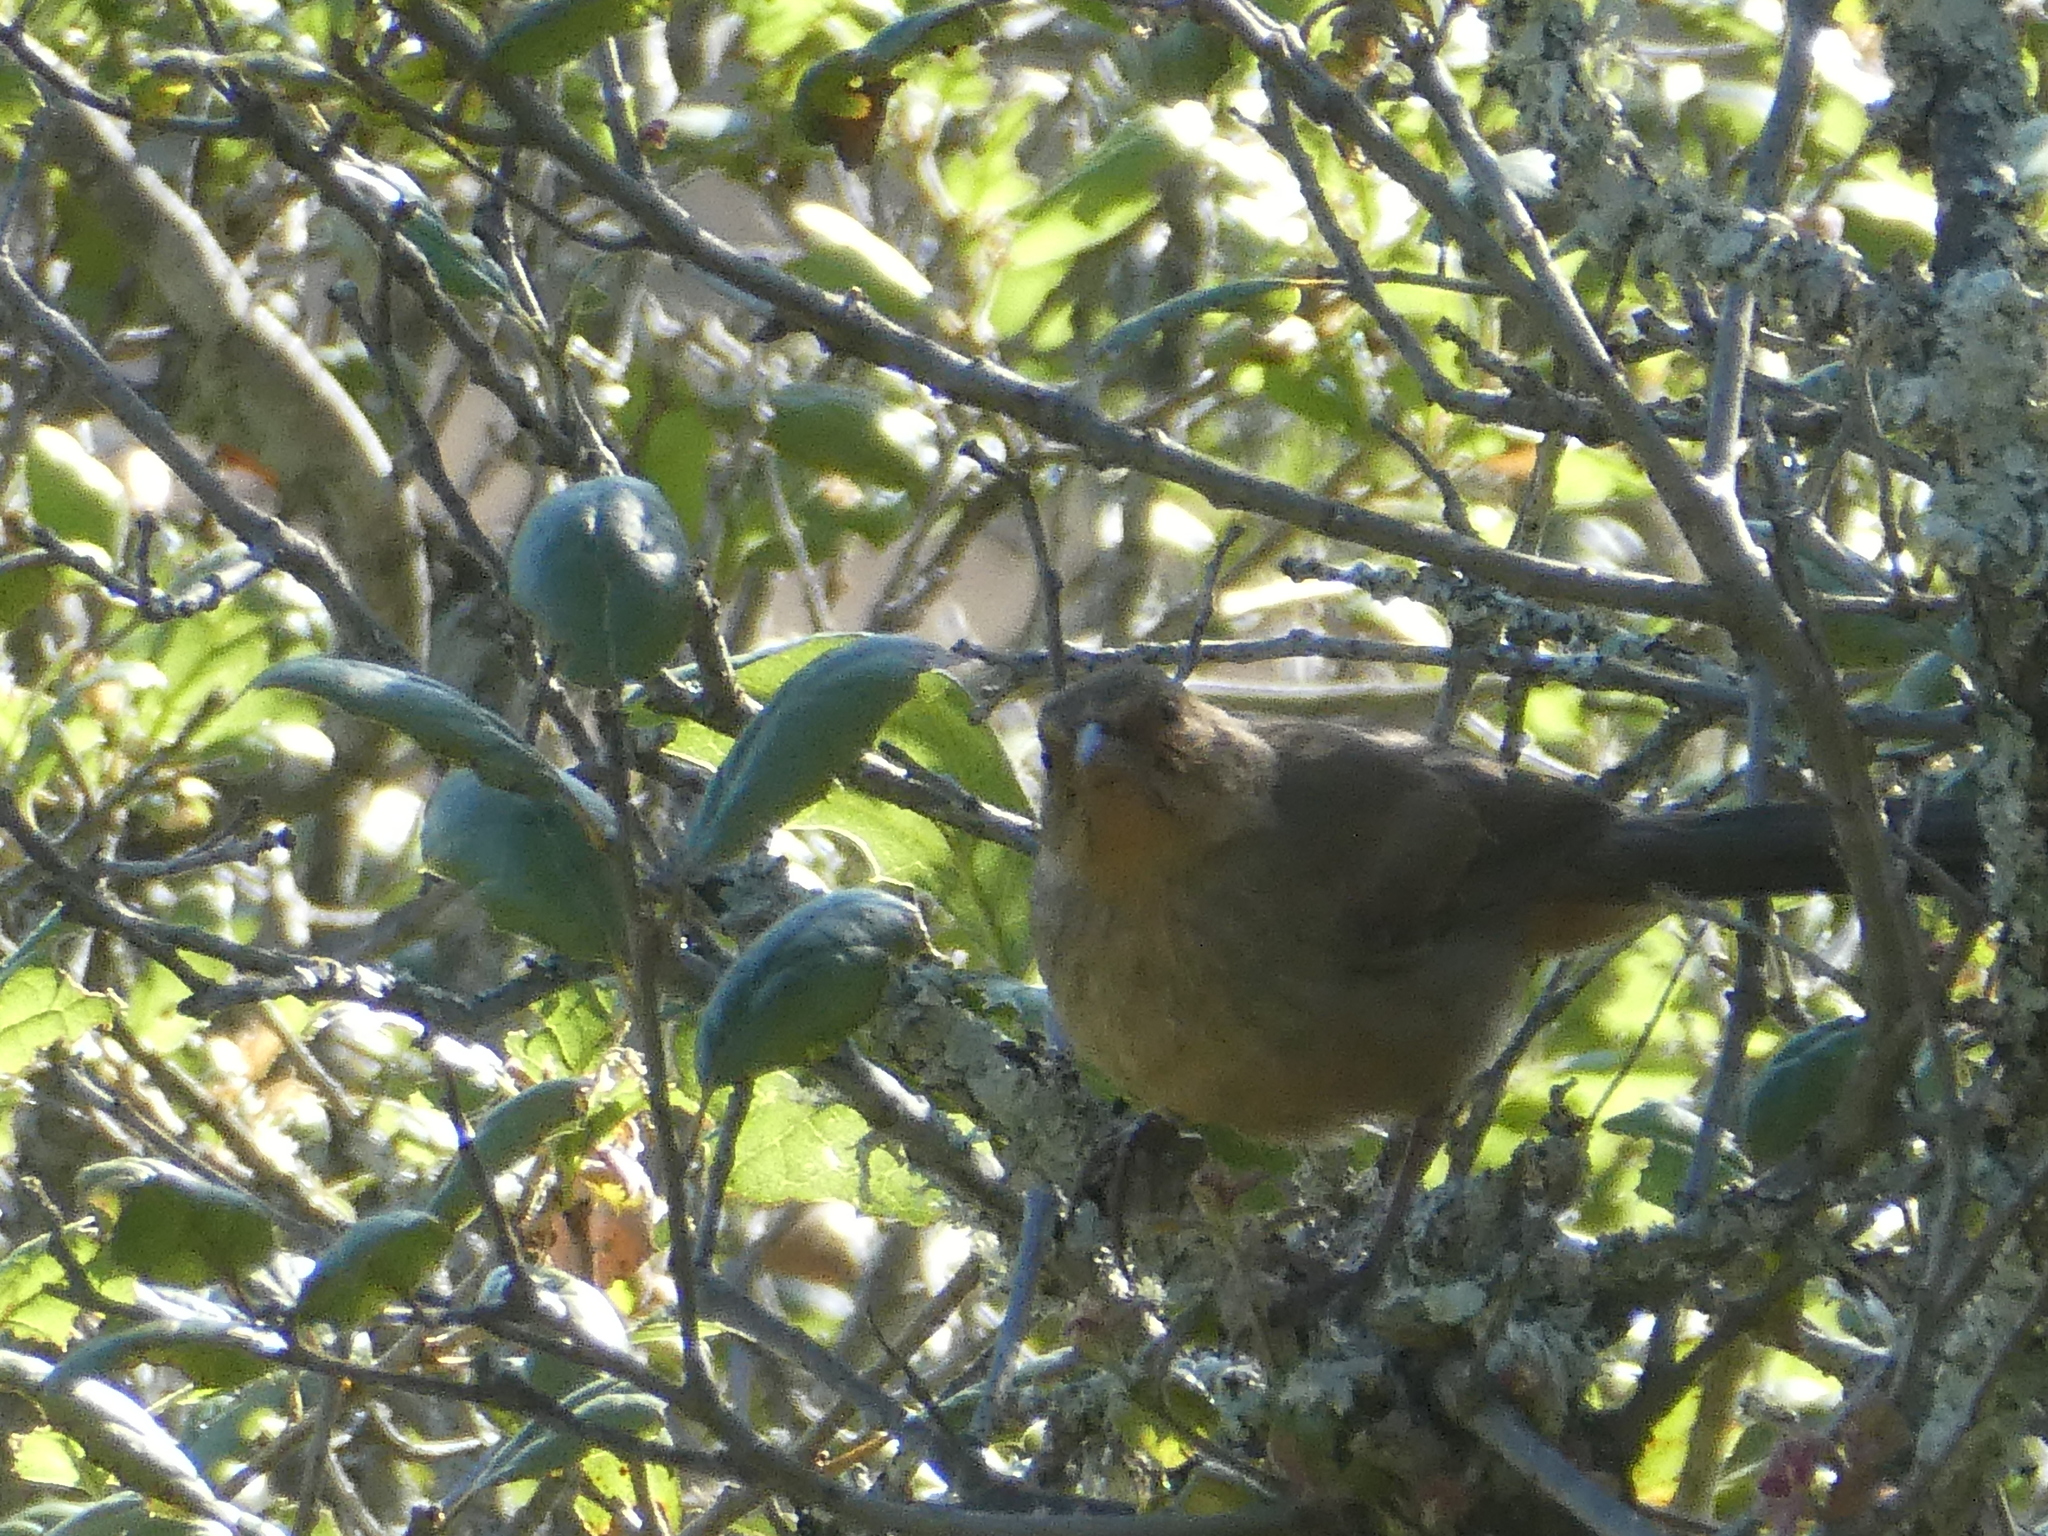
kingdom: Animalia
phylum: Chordata
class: Aves
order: Passeriformes
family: Passerellidae
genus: Melozone
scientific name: Melozone crissalis
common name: California towhee
